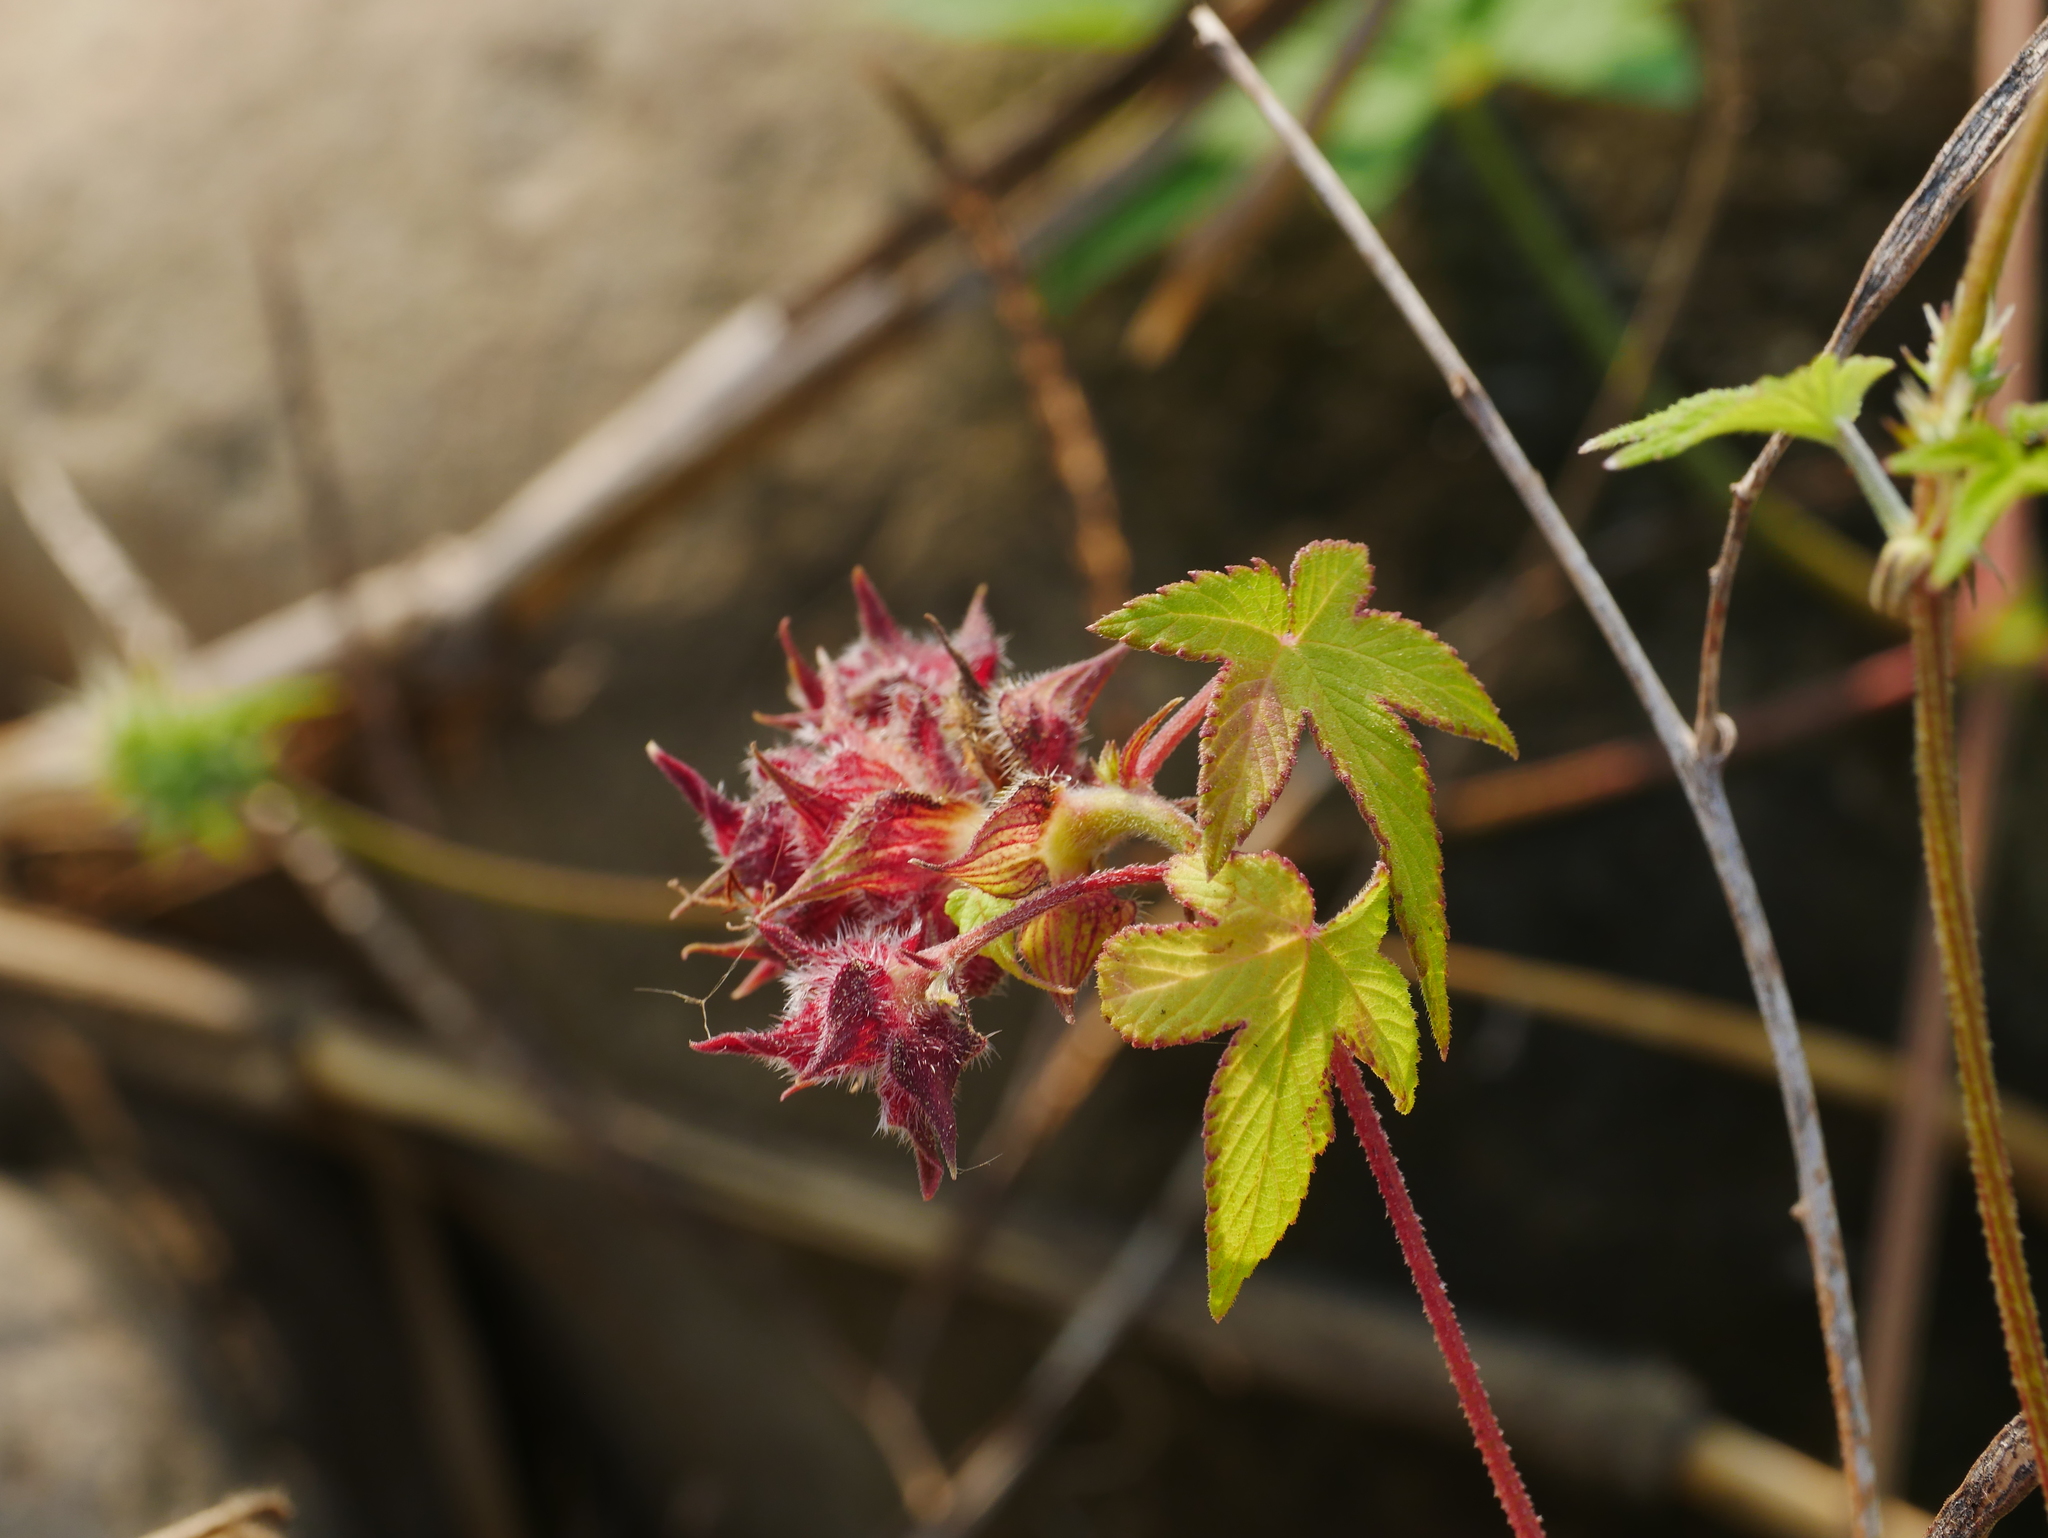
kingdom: Plantae
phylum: Tracheophyta
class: Magnoliopsida
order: Rosales
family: Cannabaceae
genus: Humulus
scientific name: Humulus scandens
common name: Japanese hop
